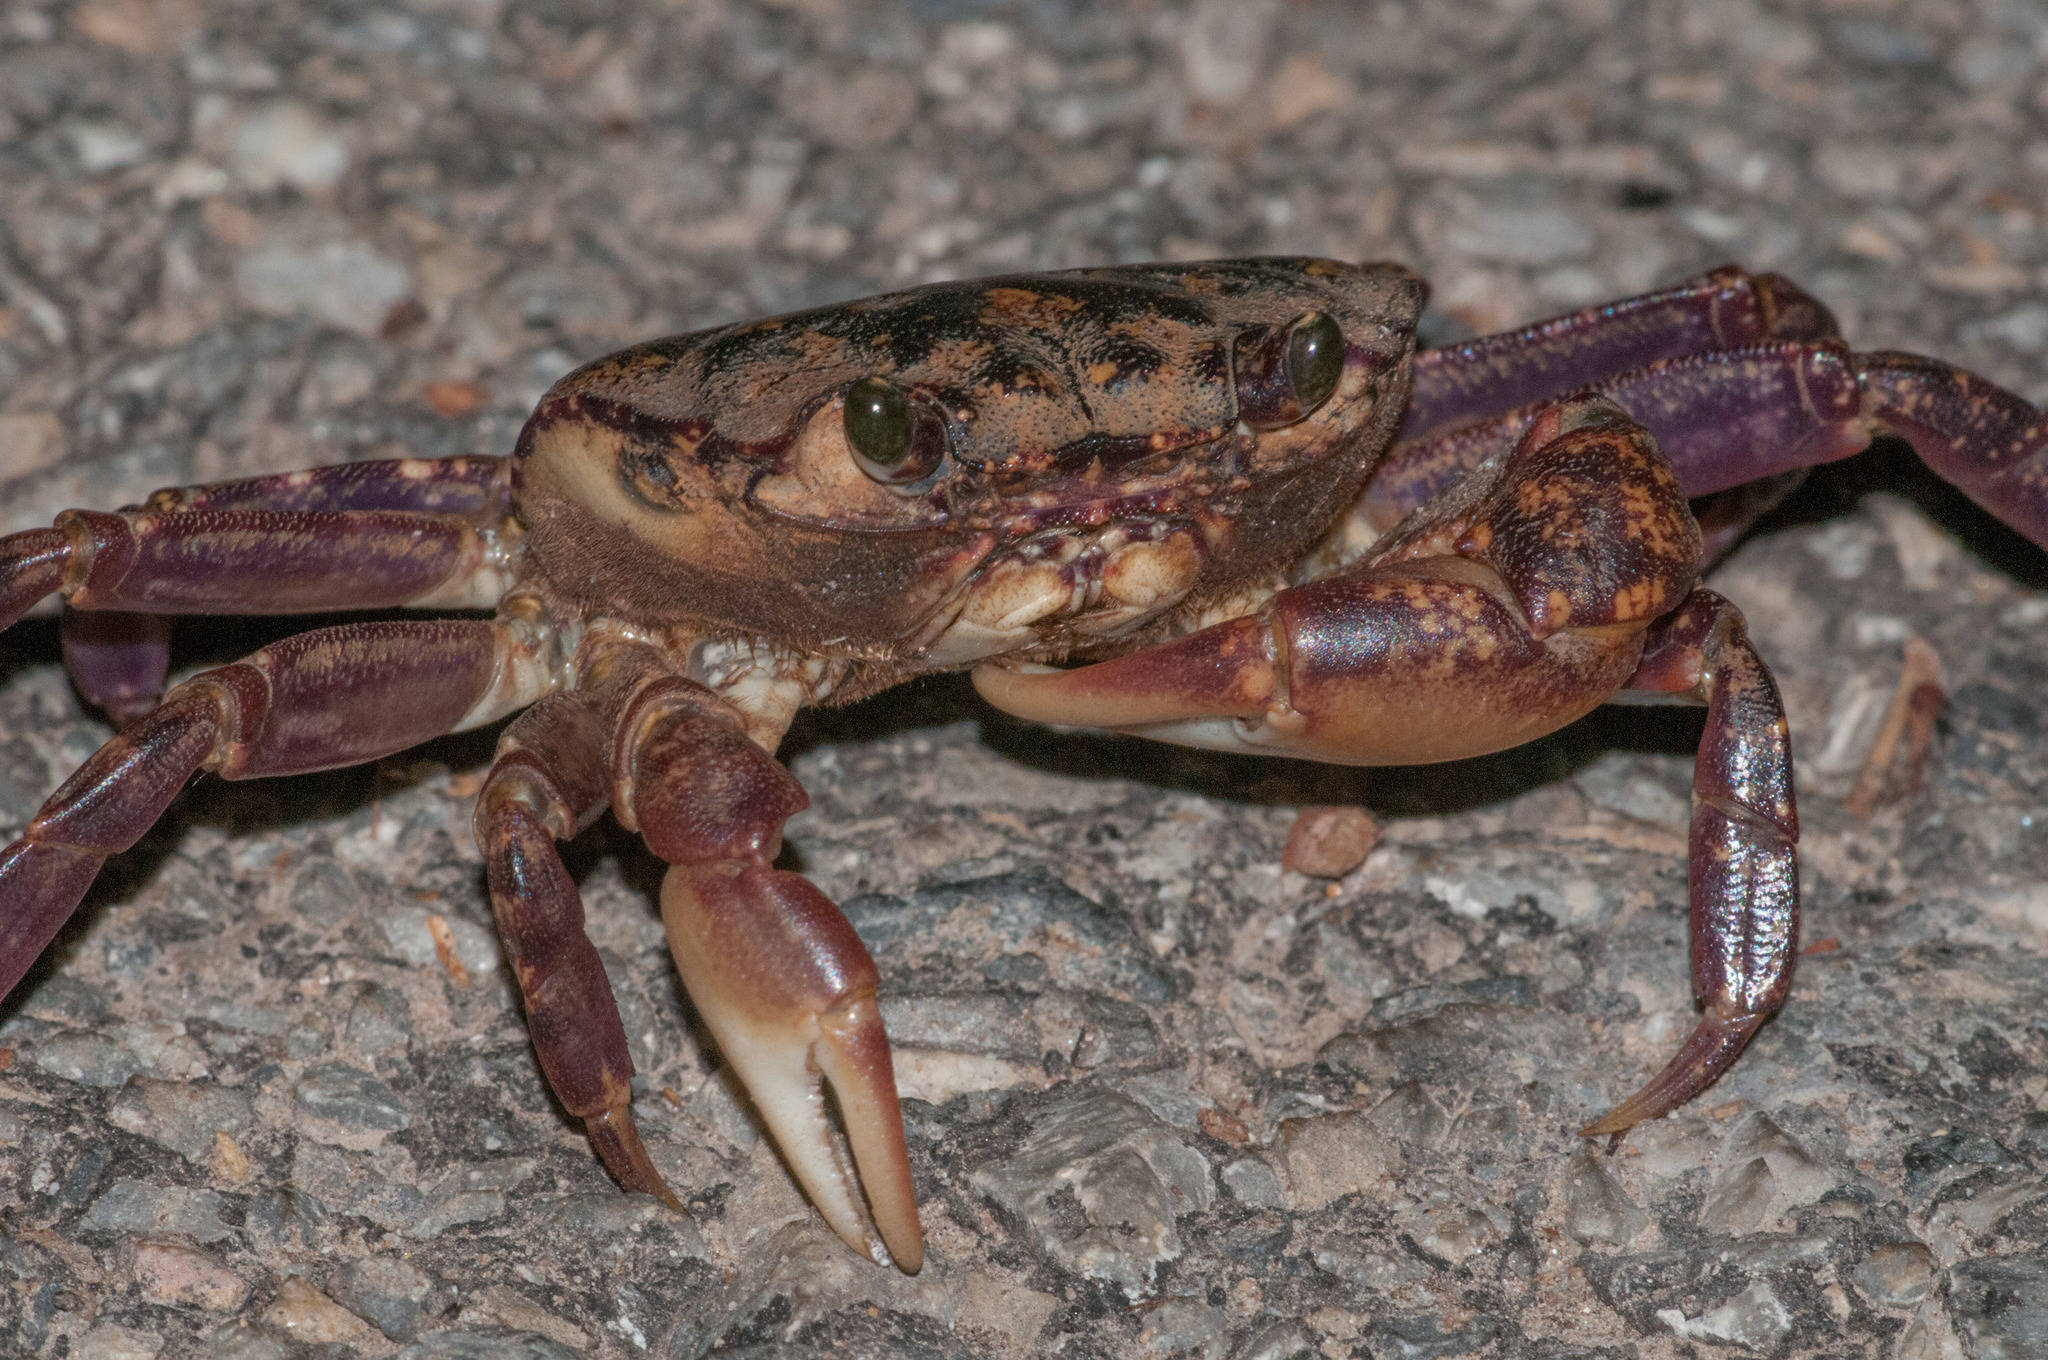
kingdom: Animalia
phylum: Arthropoda
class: Malacostraca
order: Decapoda
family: Leptograpsodidae
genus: Leptograpsodes
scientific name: Leptograpsodes octodentatus
